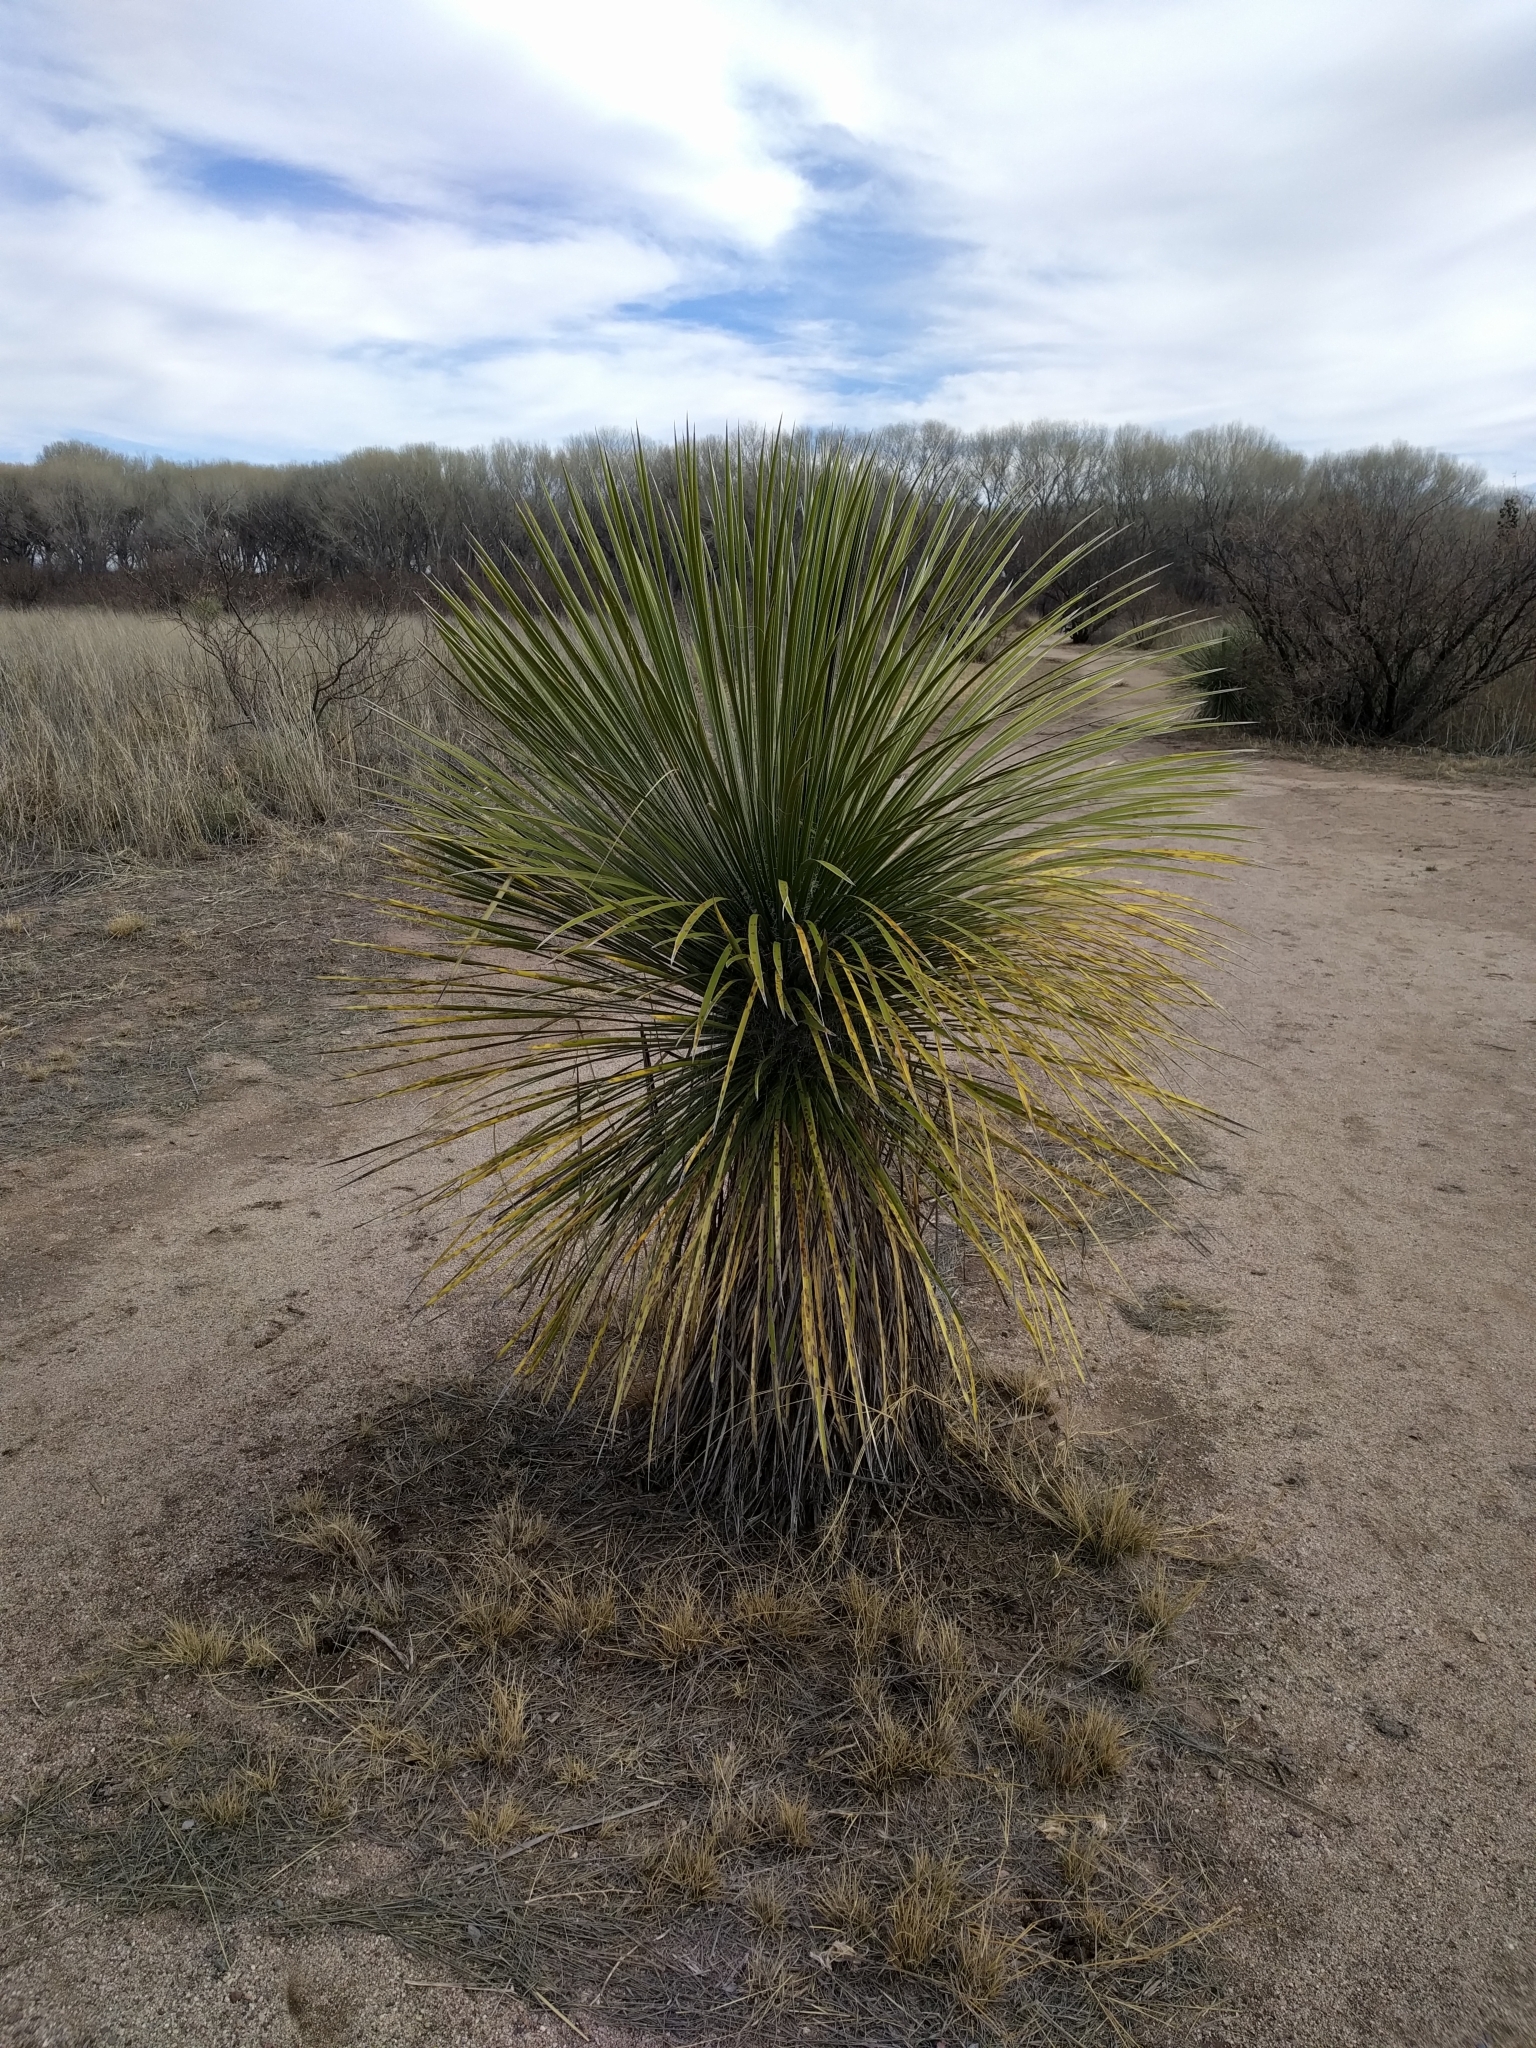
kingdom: Plantae
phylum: Tracheophyta
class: Liliopsida
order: Asparagales
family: Asparagaceae
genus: Yucca
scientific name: Yucca elata
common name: Palmella
